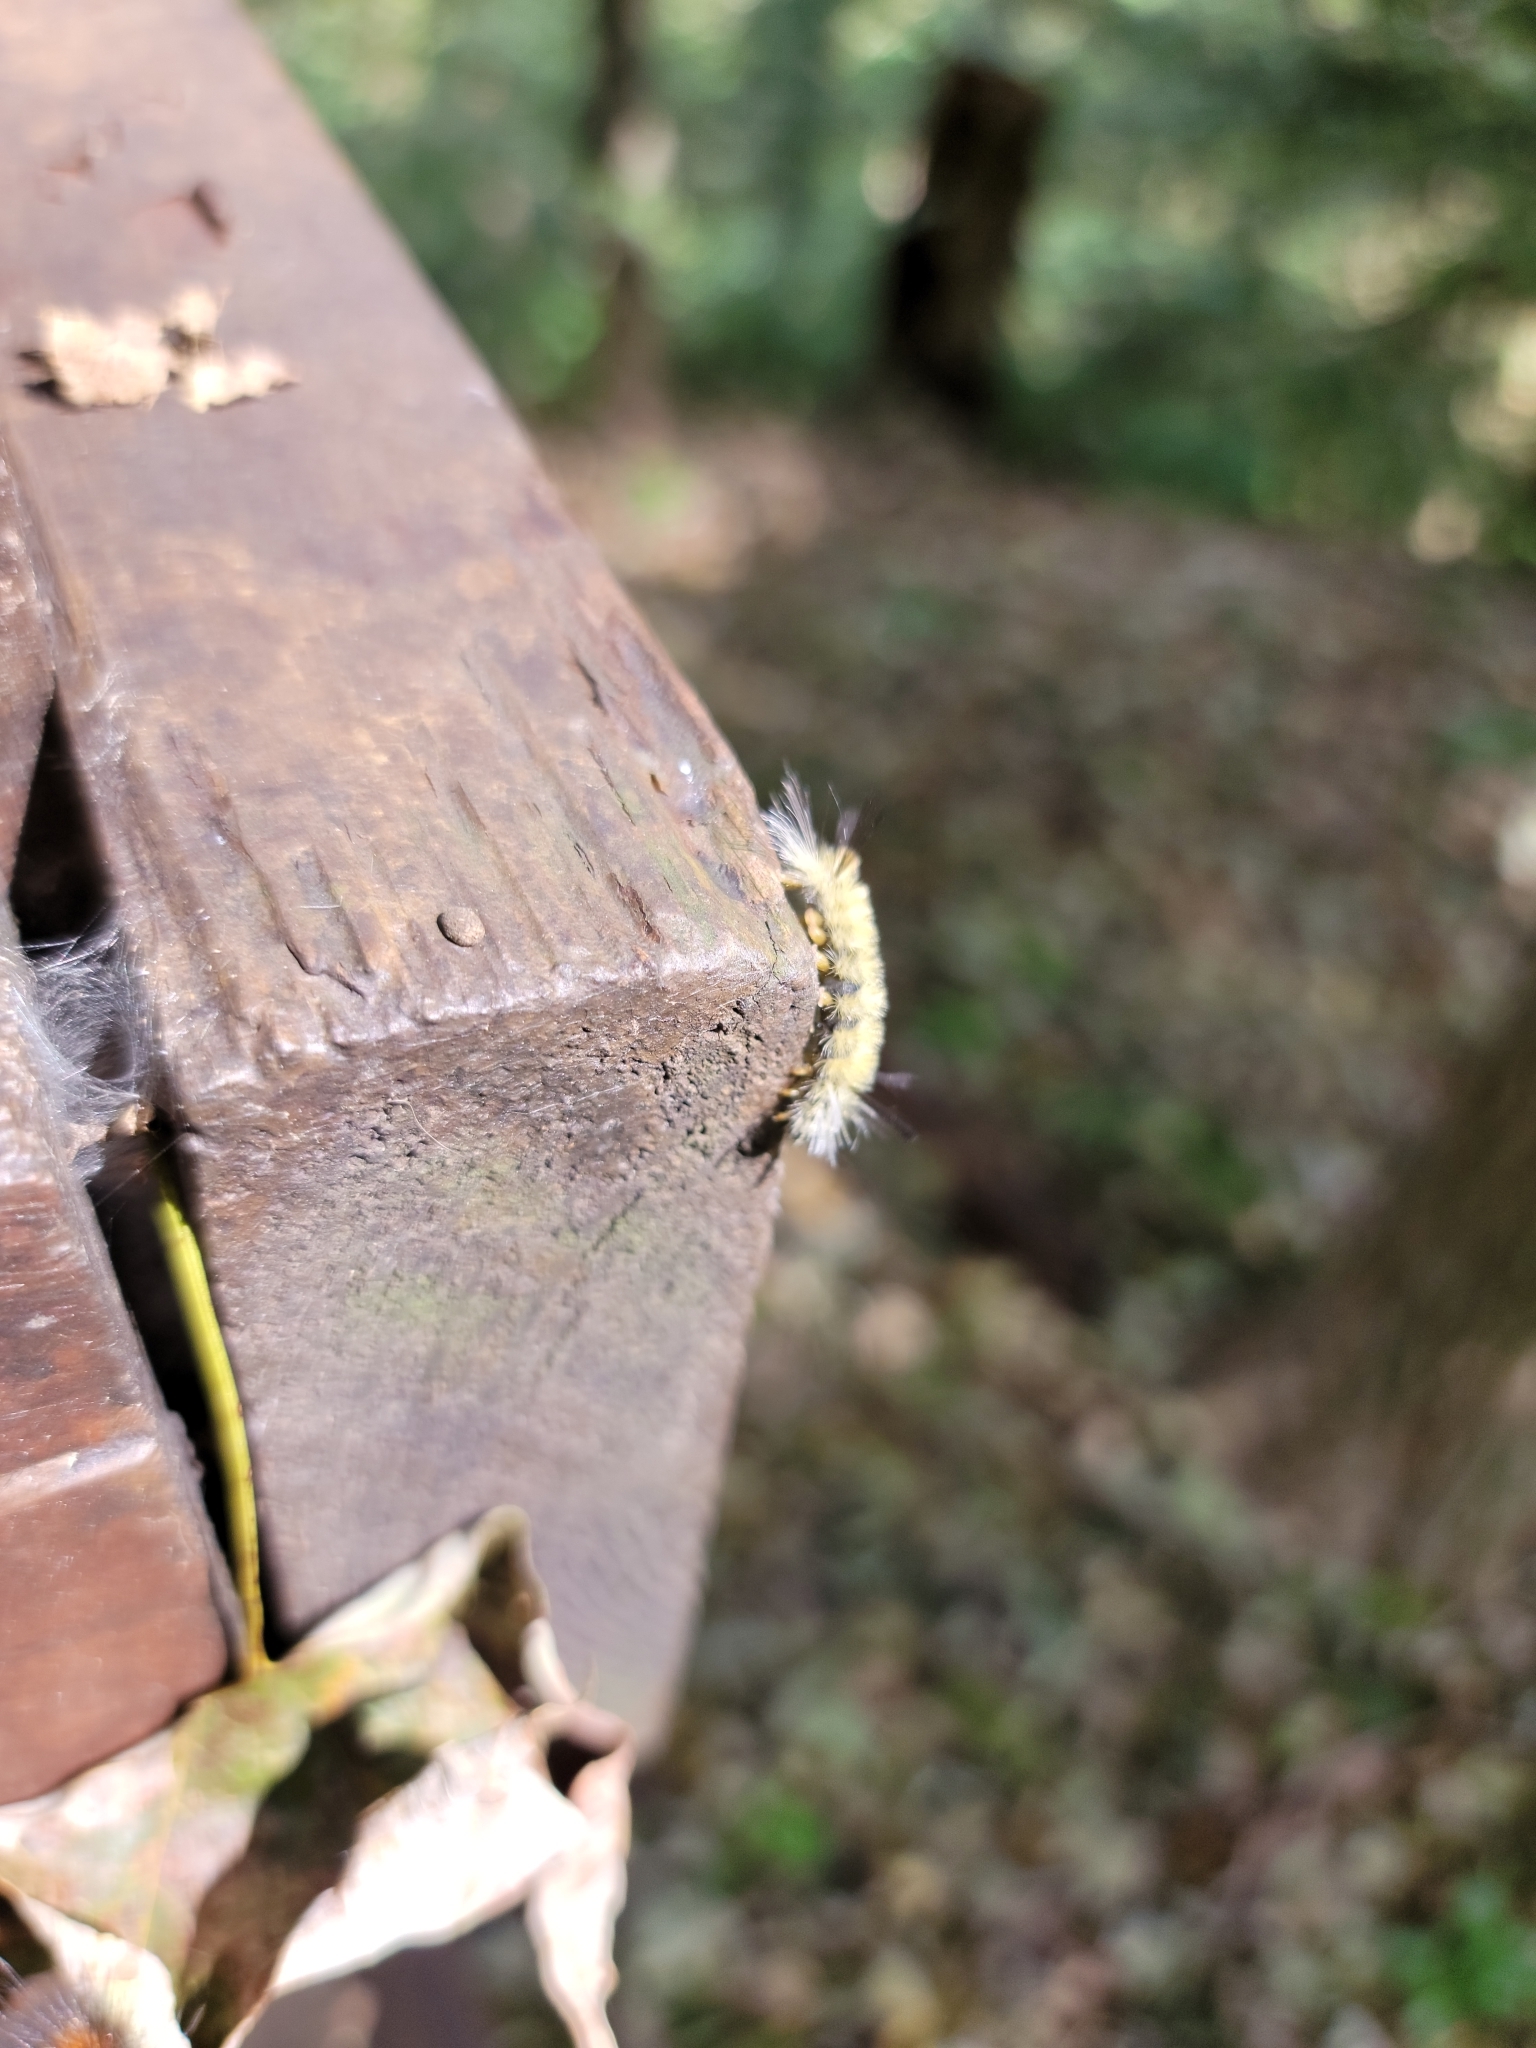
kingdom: Animalia
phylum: Arthropoda
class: Insecta
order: Lepidoptera
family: Erebidae
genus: Halysidota
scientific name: Halysidota tessellaris
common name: Banded tussock moth
